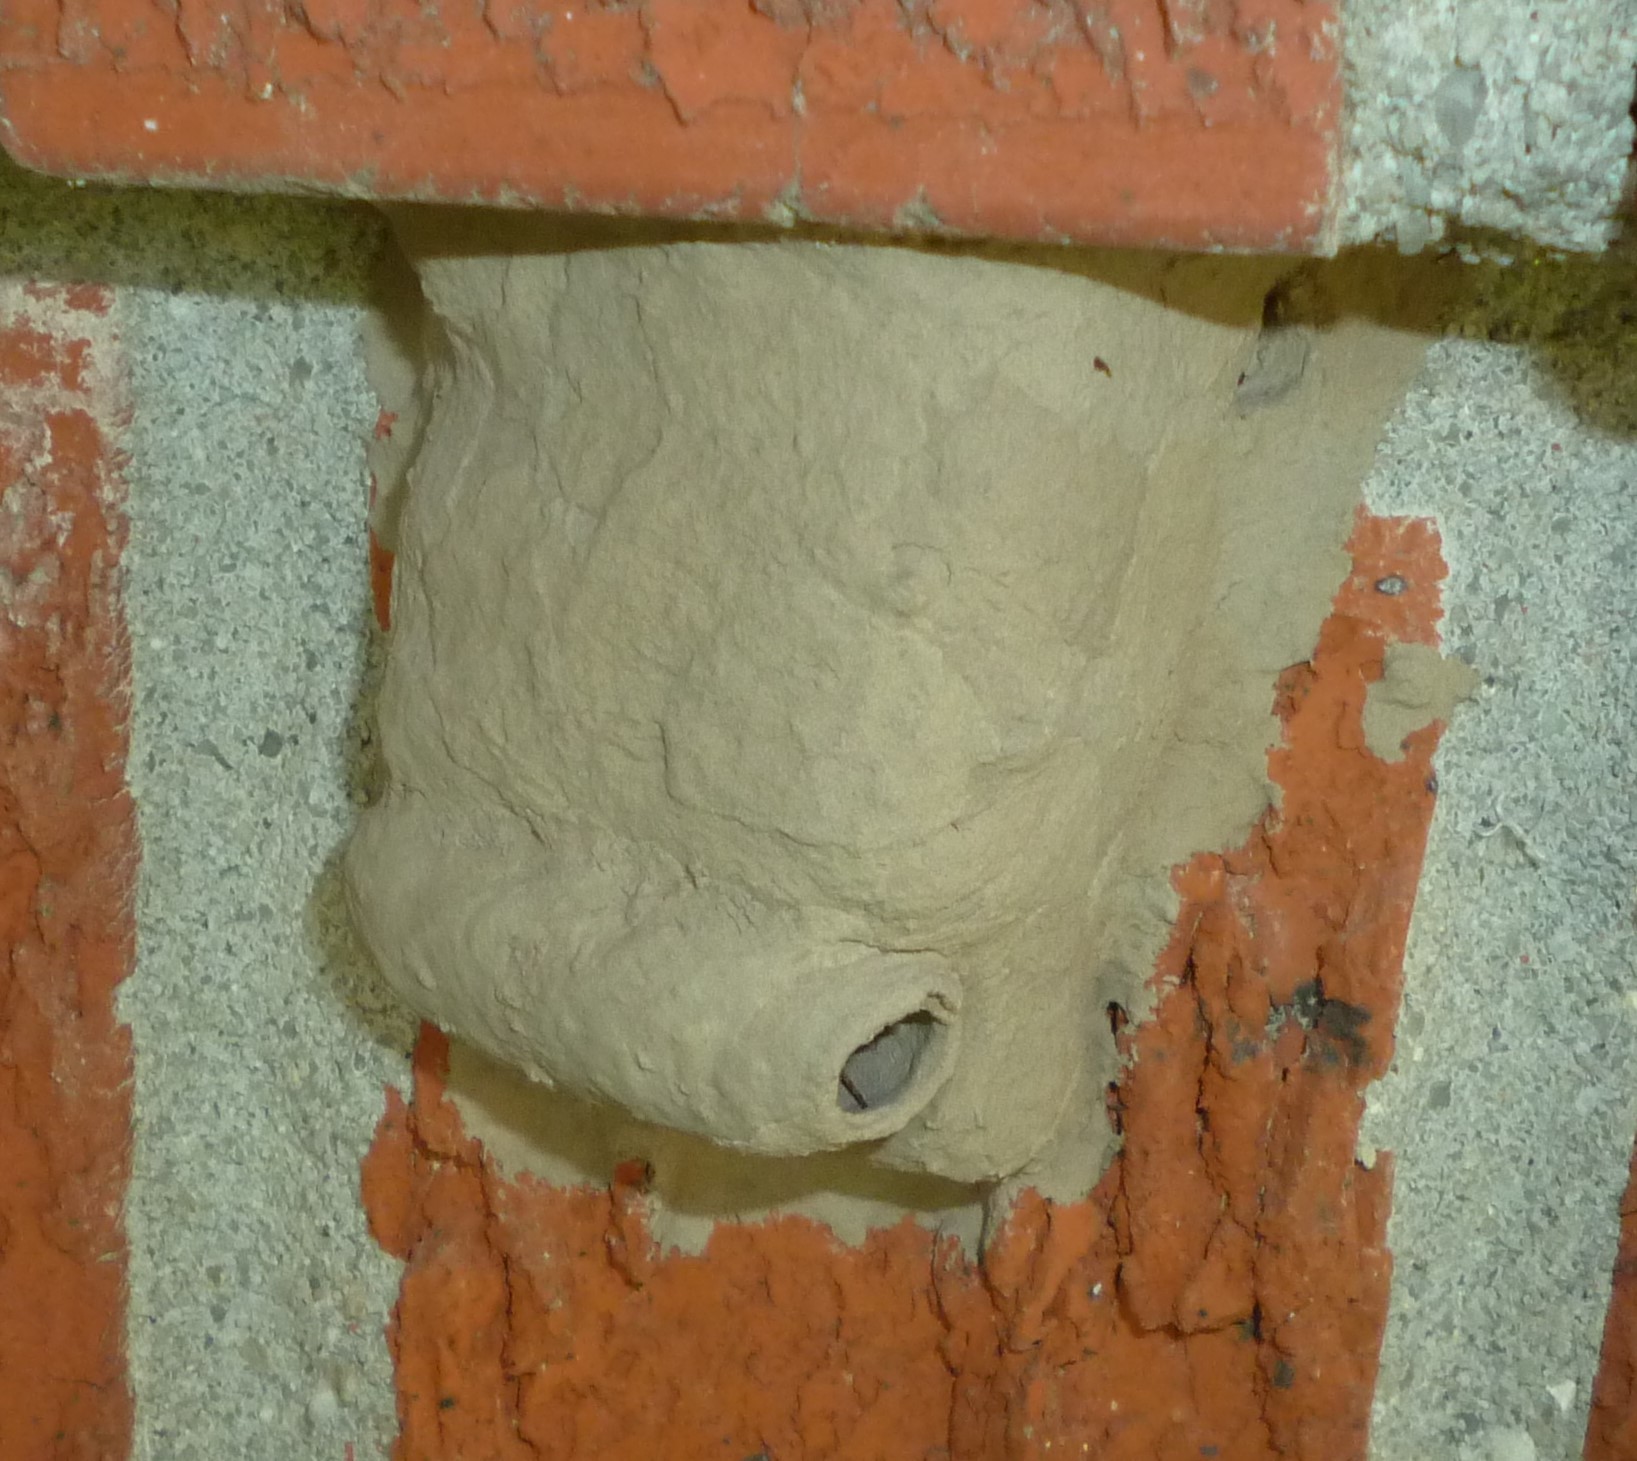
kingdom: Animalia
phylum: Arthropoda
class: Insecta
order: Hymenoptera
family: Sphecidae
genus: Sceliphron
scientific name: Sceliphron caementarium
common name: Mud dauber
